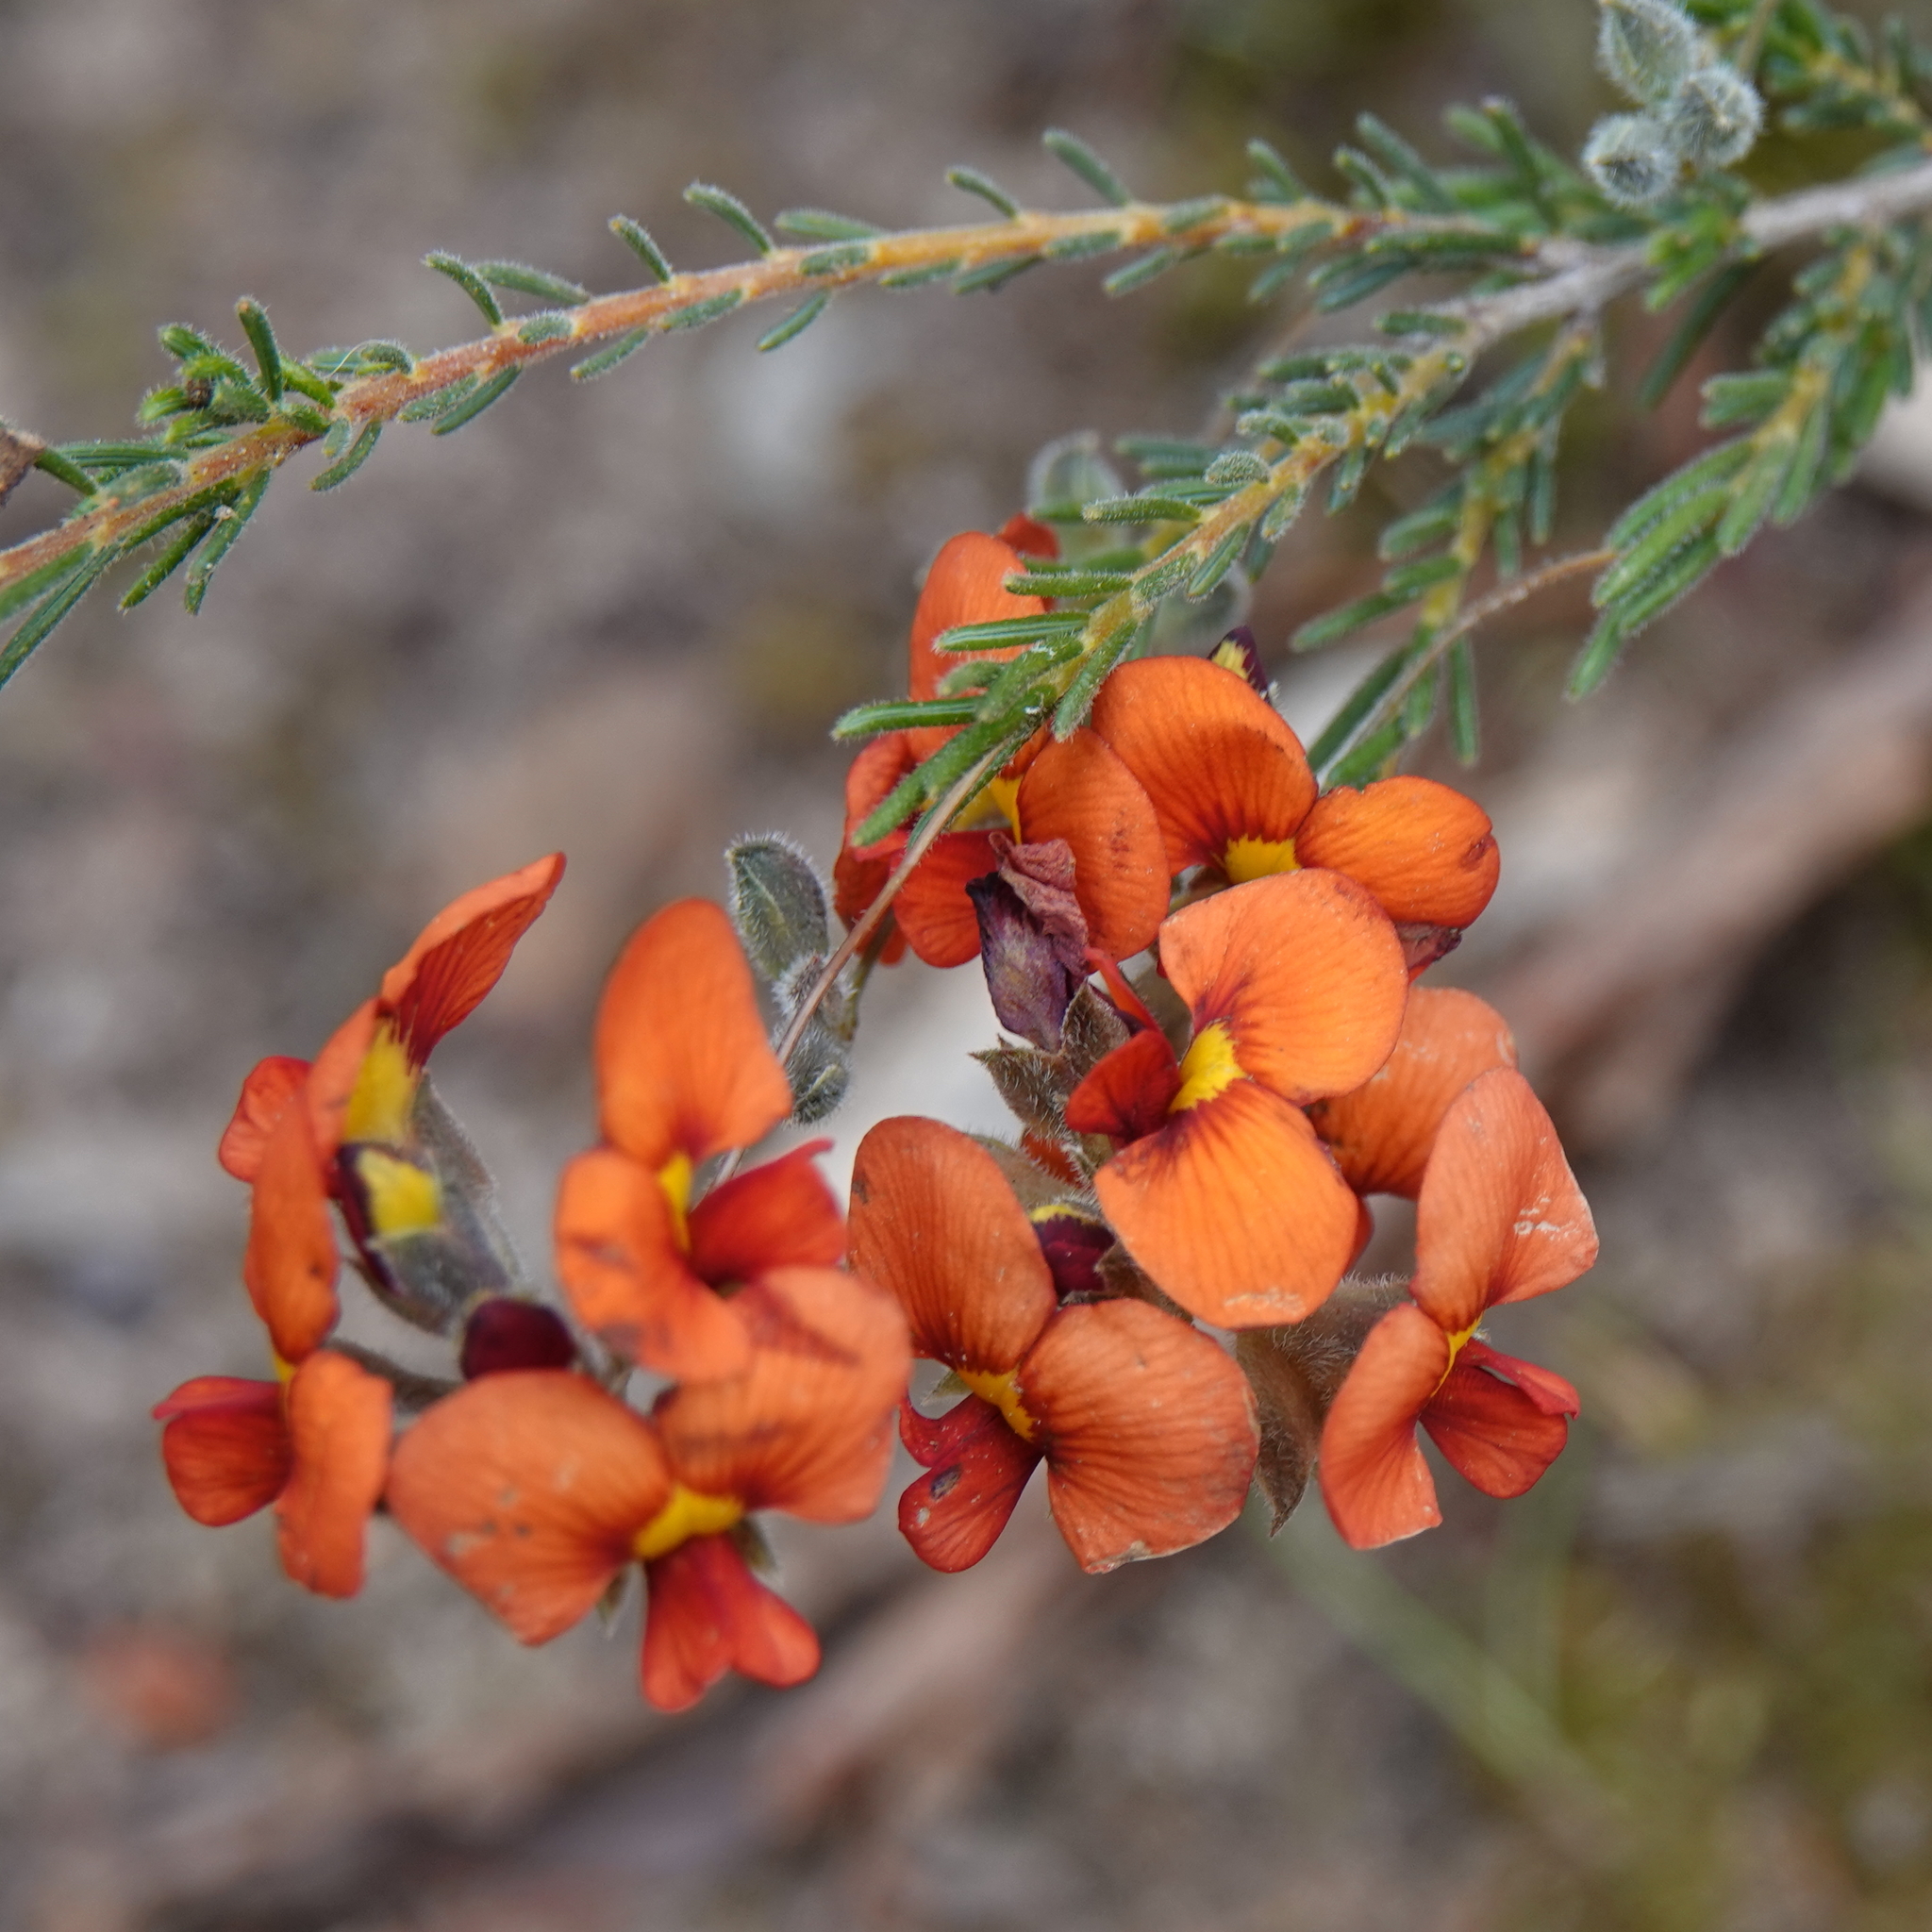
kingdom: Plantae
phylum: Tracheophyta
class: Magnoliopsida
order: Fabales
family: Fabaceae
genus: Dillwynia
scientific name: Dillwynia hispida
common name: Red parrot-pea
